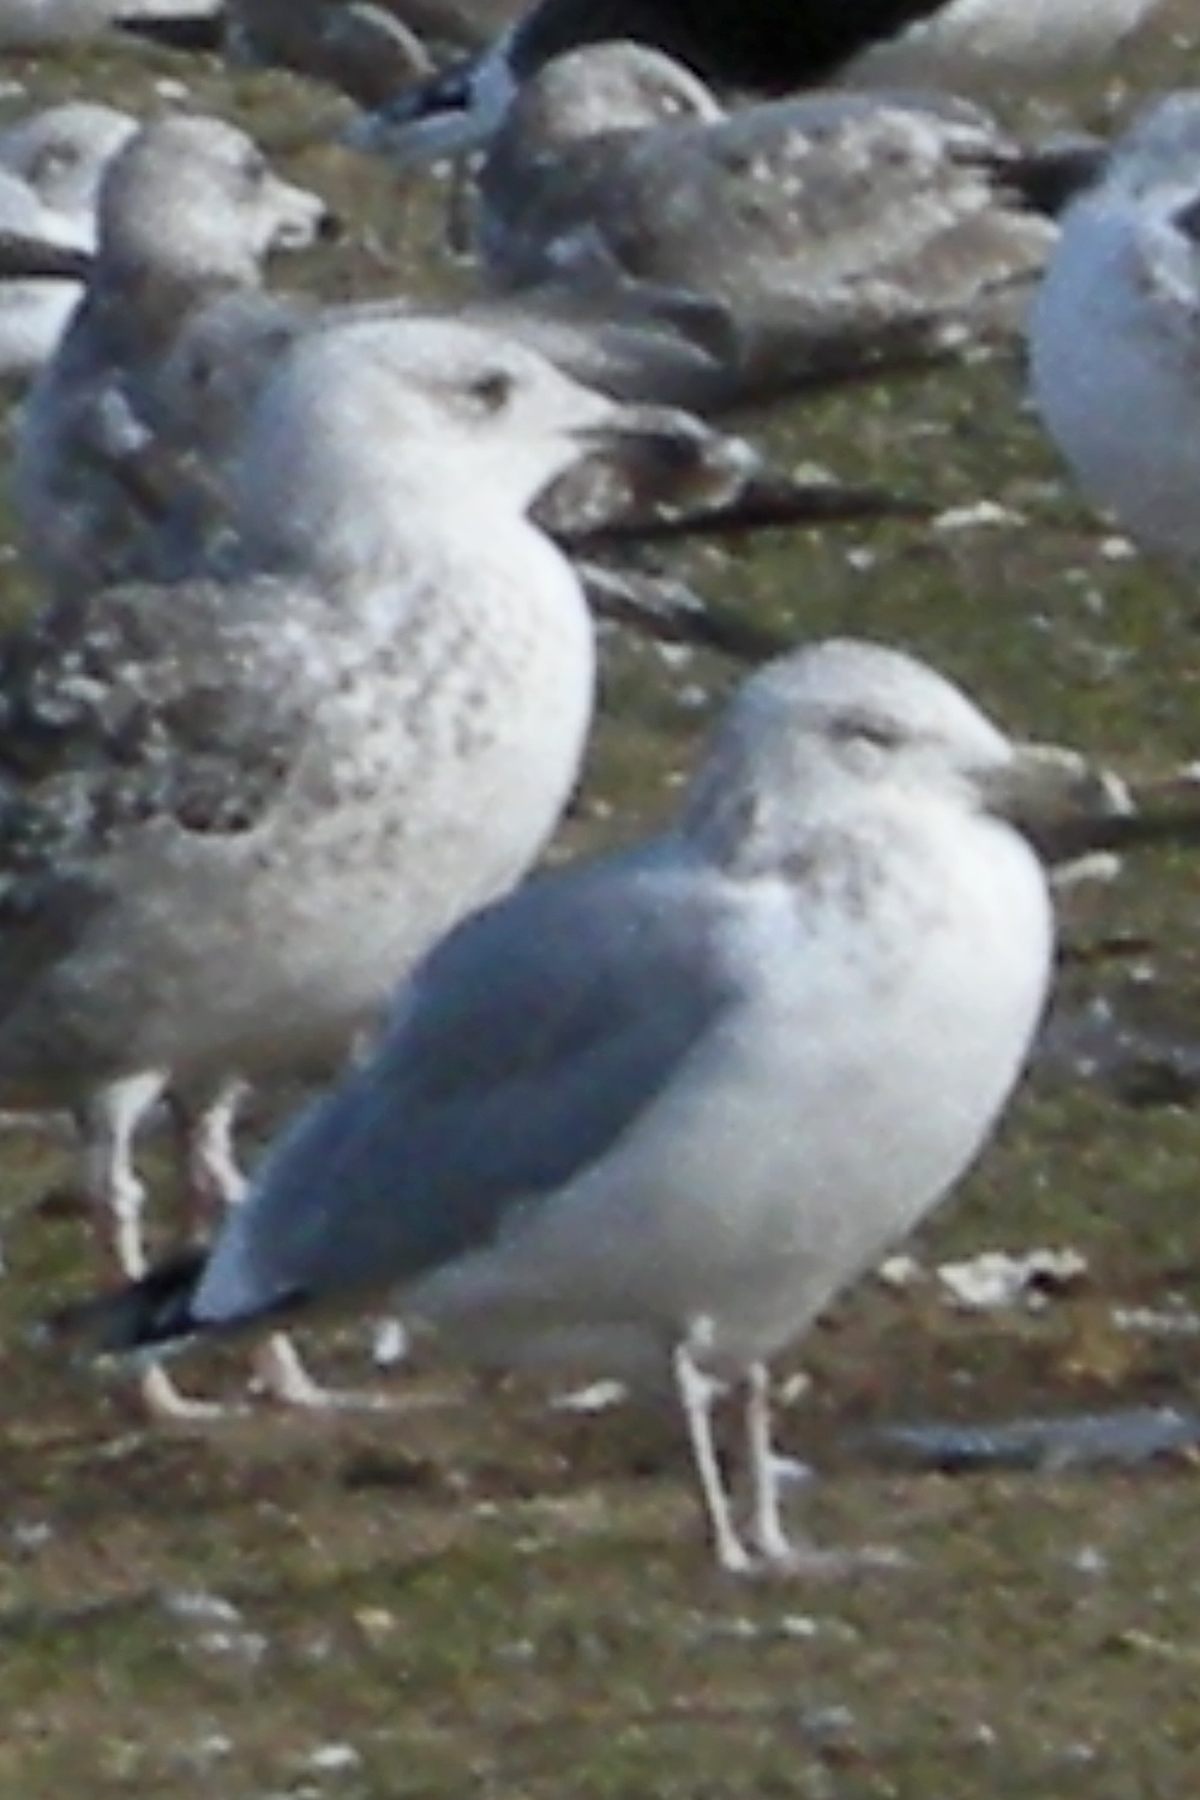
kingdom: Animalia
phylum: Chordata
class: Aves
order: Charadriiformes
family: Laridae
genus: Larus
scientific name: Larus argentatus
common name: Herring gull
